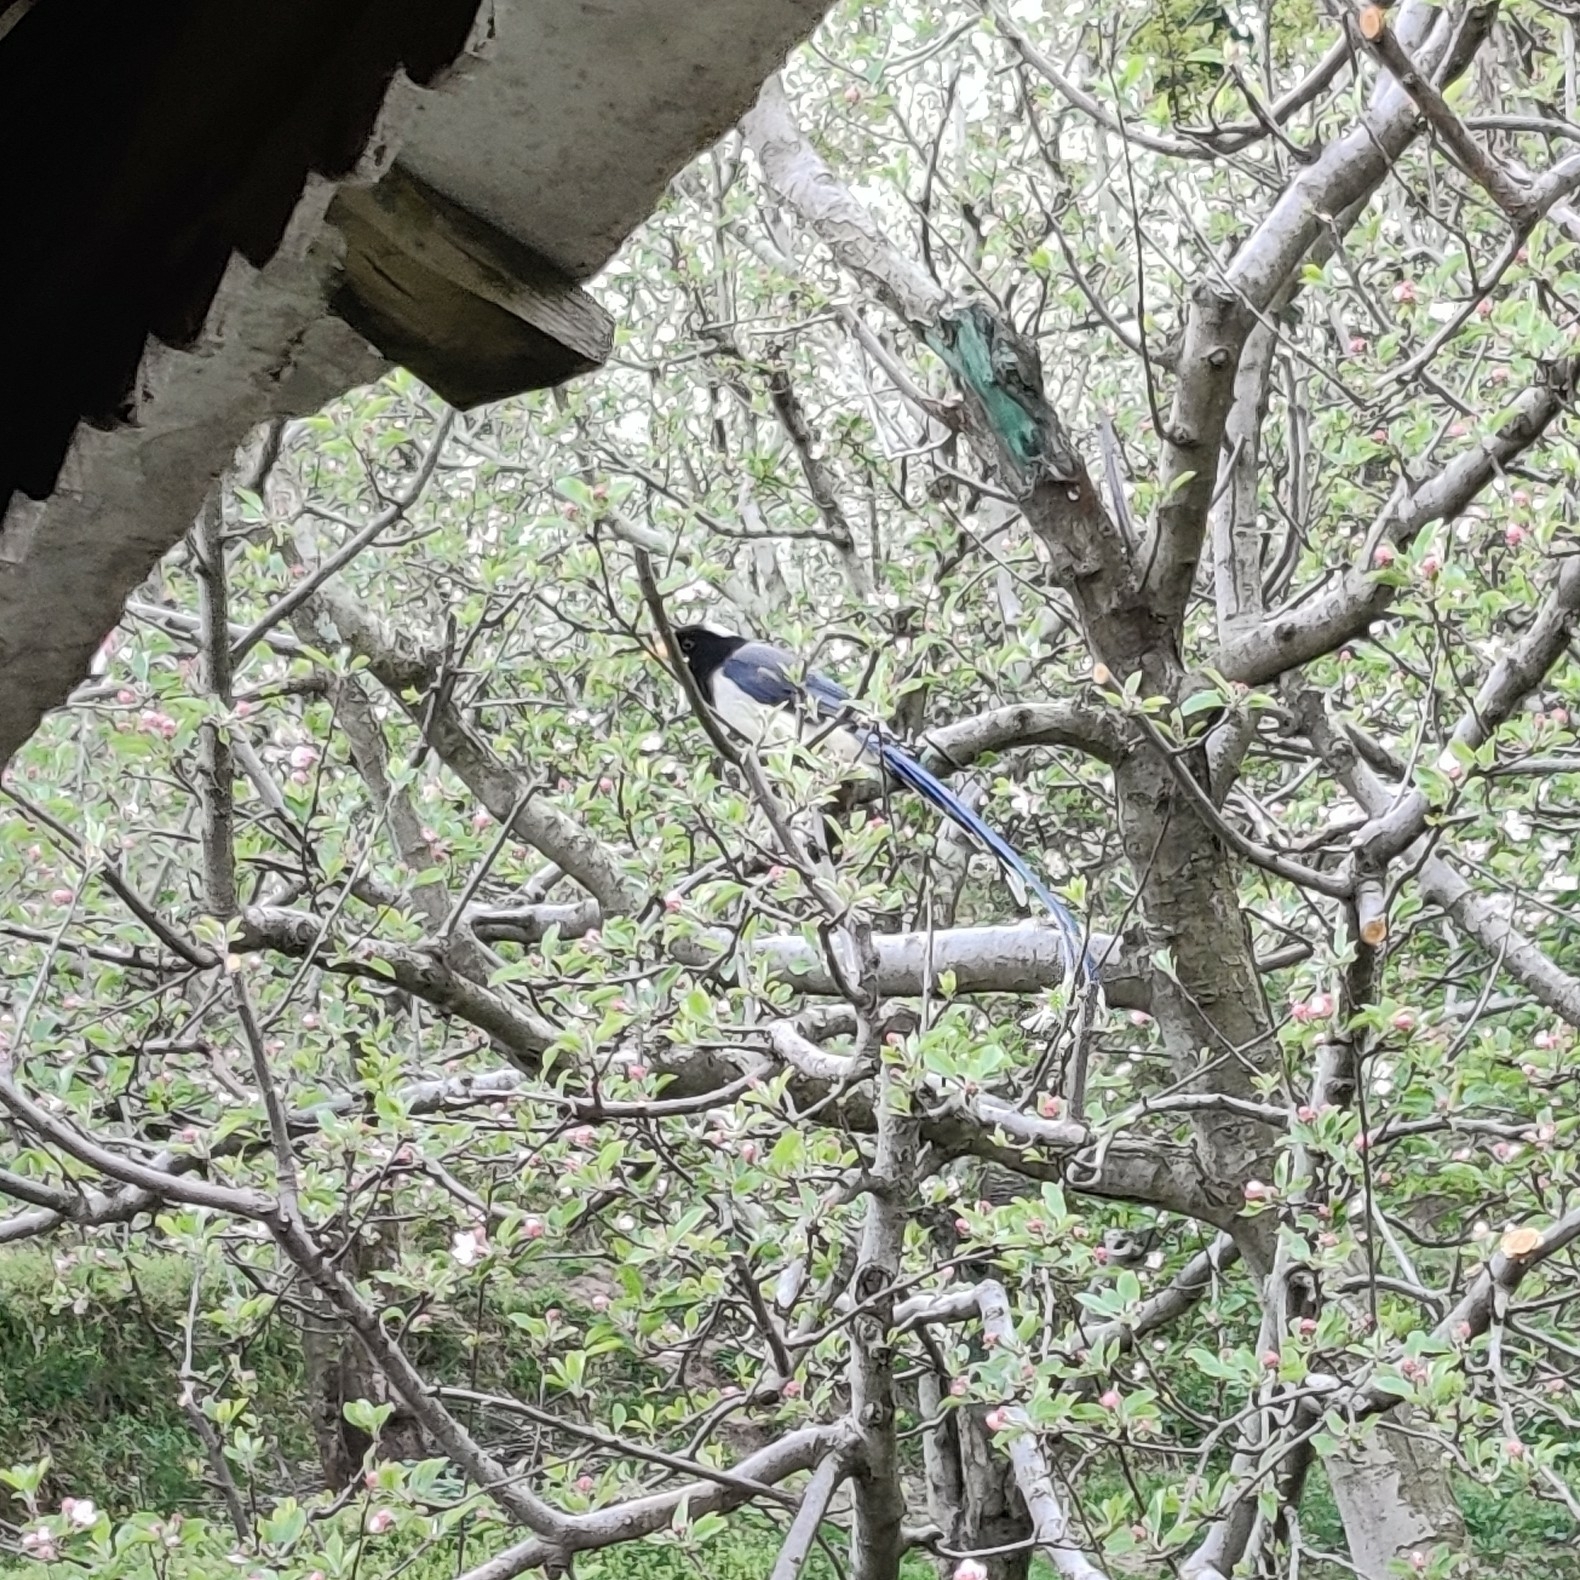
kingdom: Animalia
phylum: Chordata
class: Aves
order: Passeriformes
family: Corvidae
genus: Urocissa
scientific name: Urocissa flavirostris
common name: Yellow-billed blue magpie
